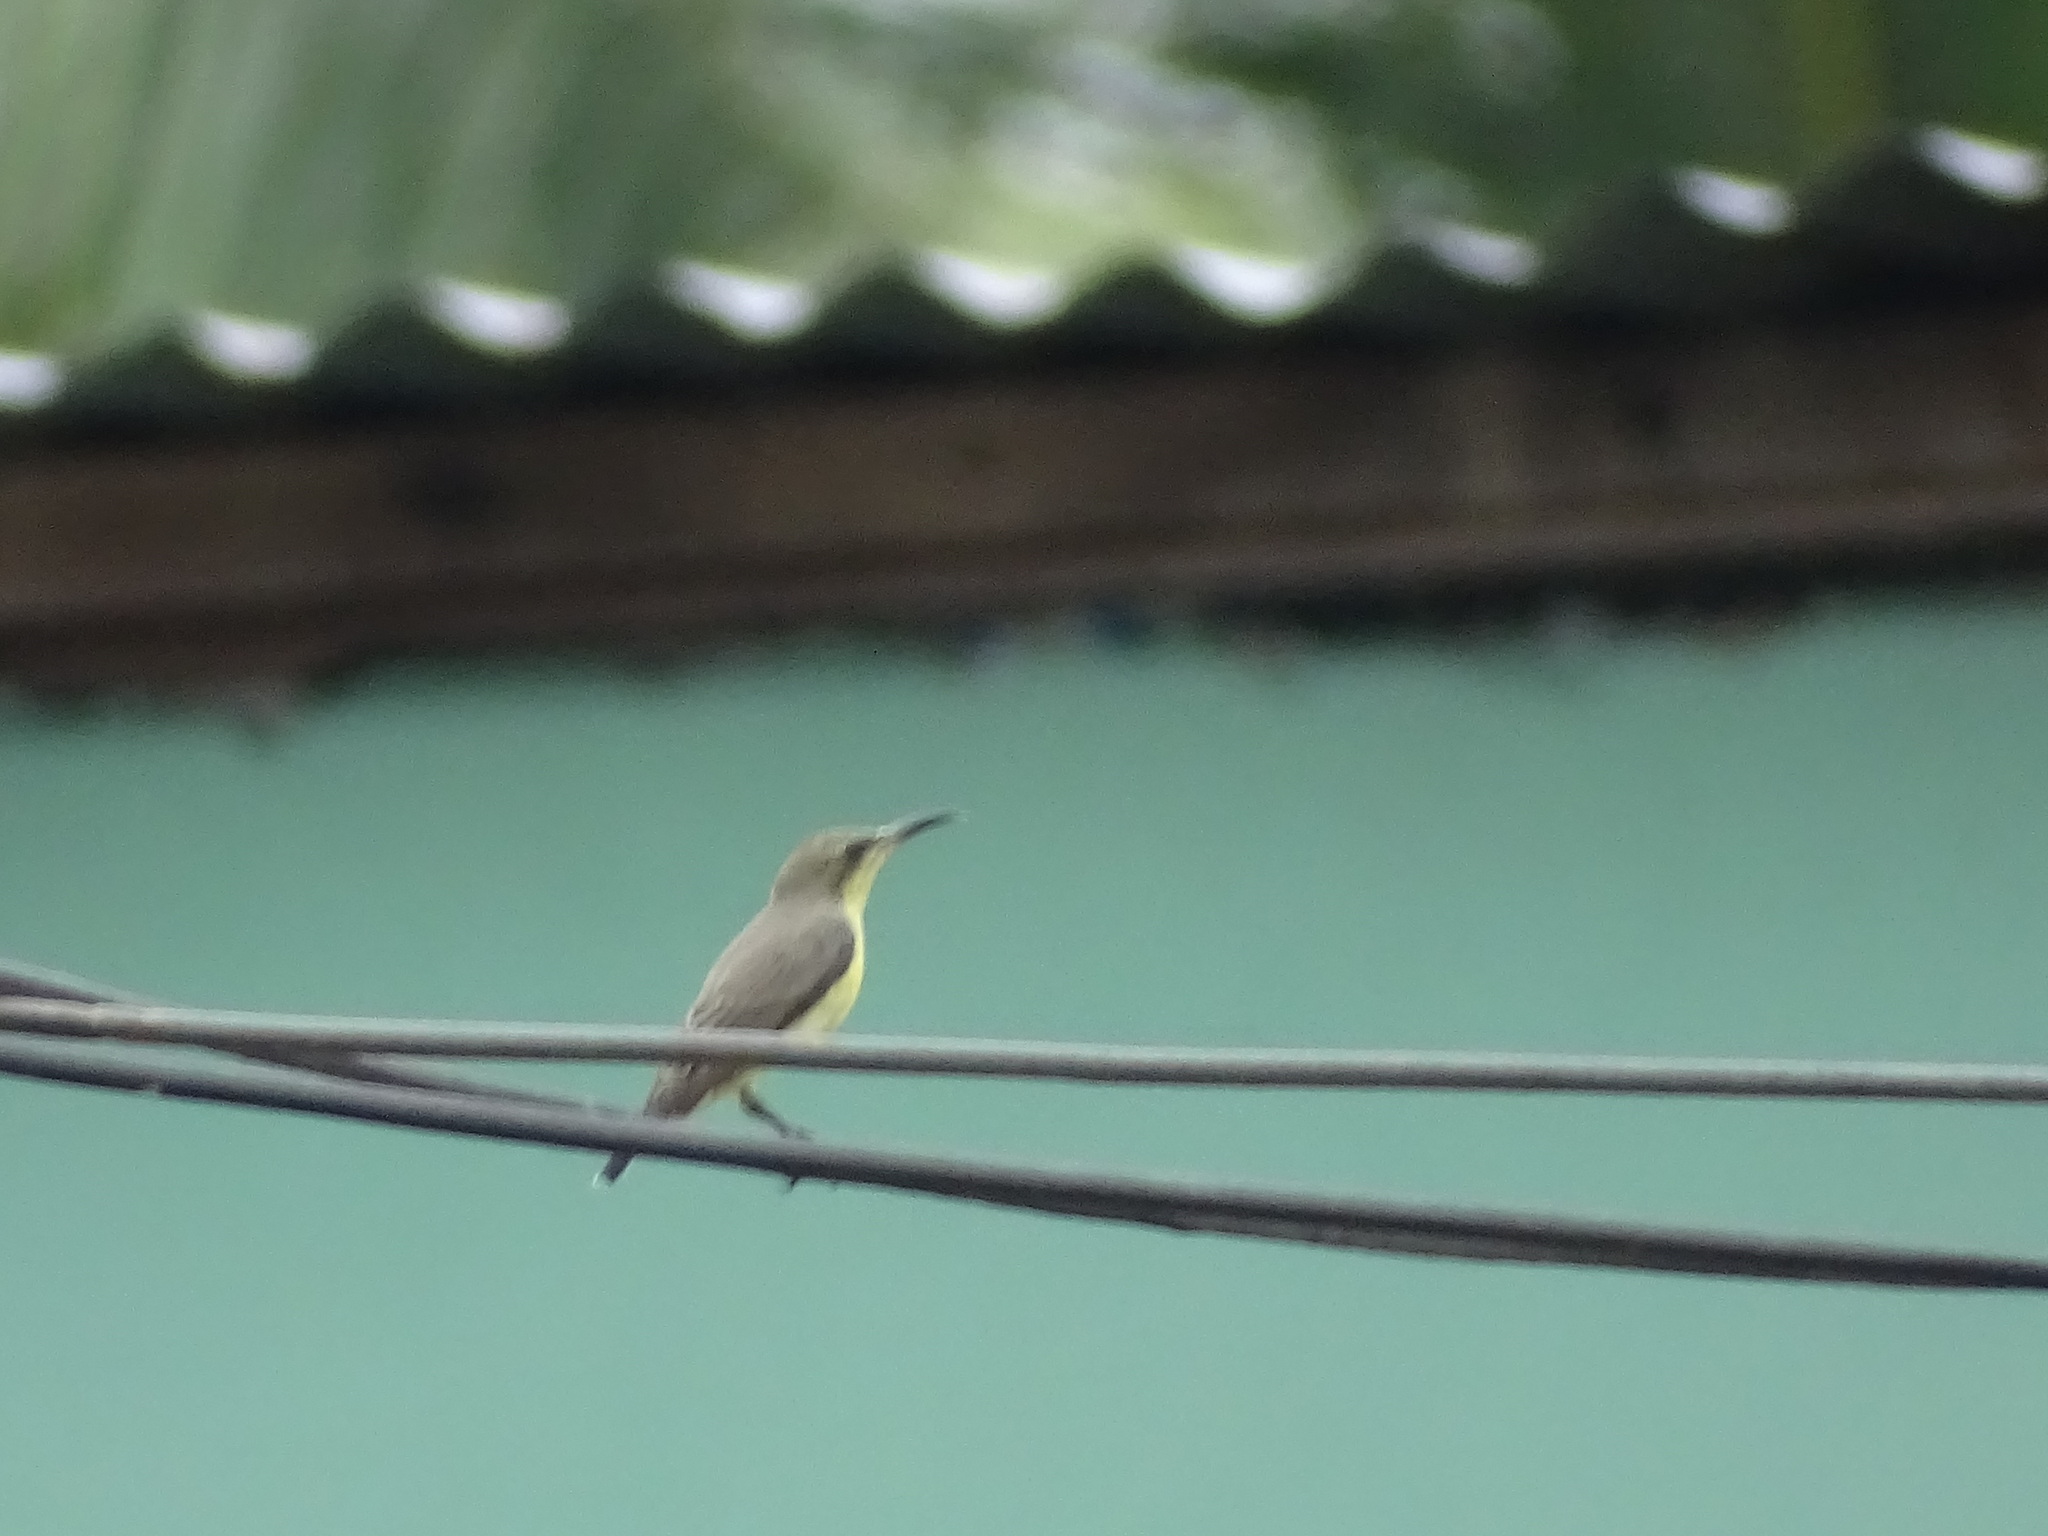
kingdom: Animalia
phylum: Chordata
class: Aves
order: Passeriformes
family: Nectariniidae
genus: Cinnyris
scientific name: Cinnyris asiaticus
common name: Purple sunbird
